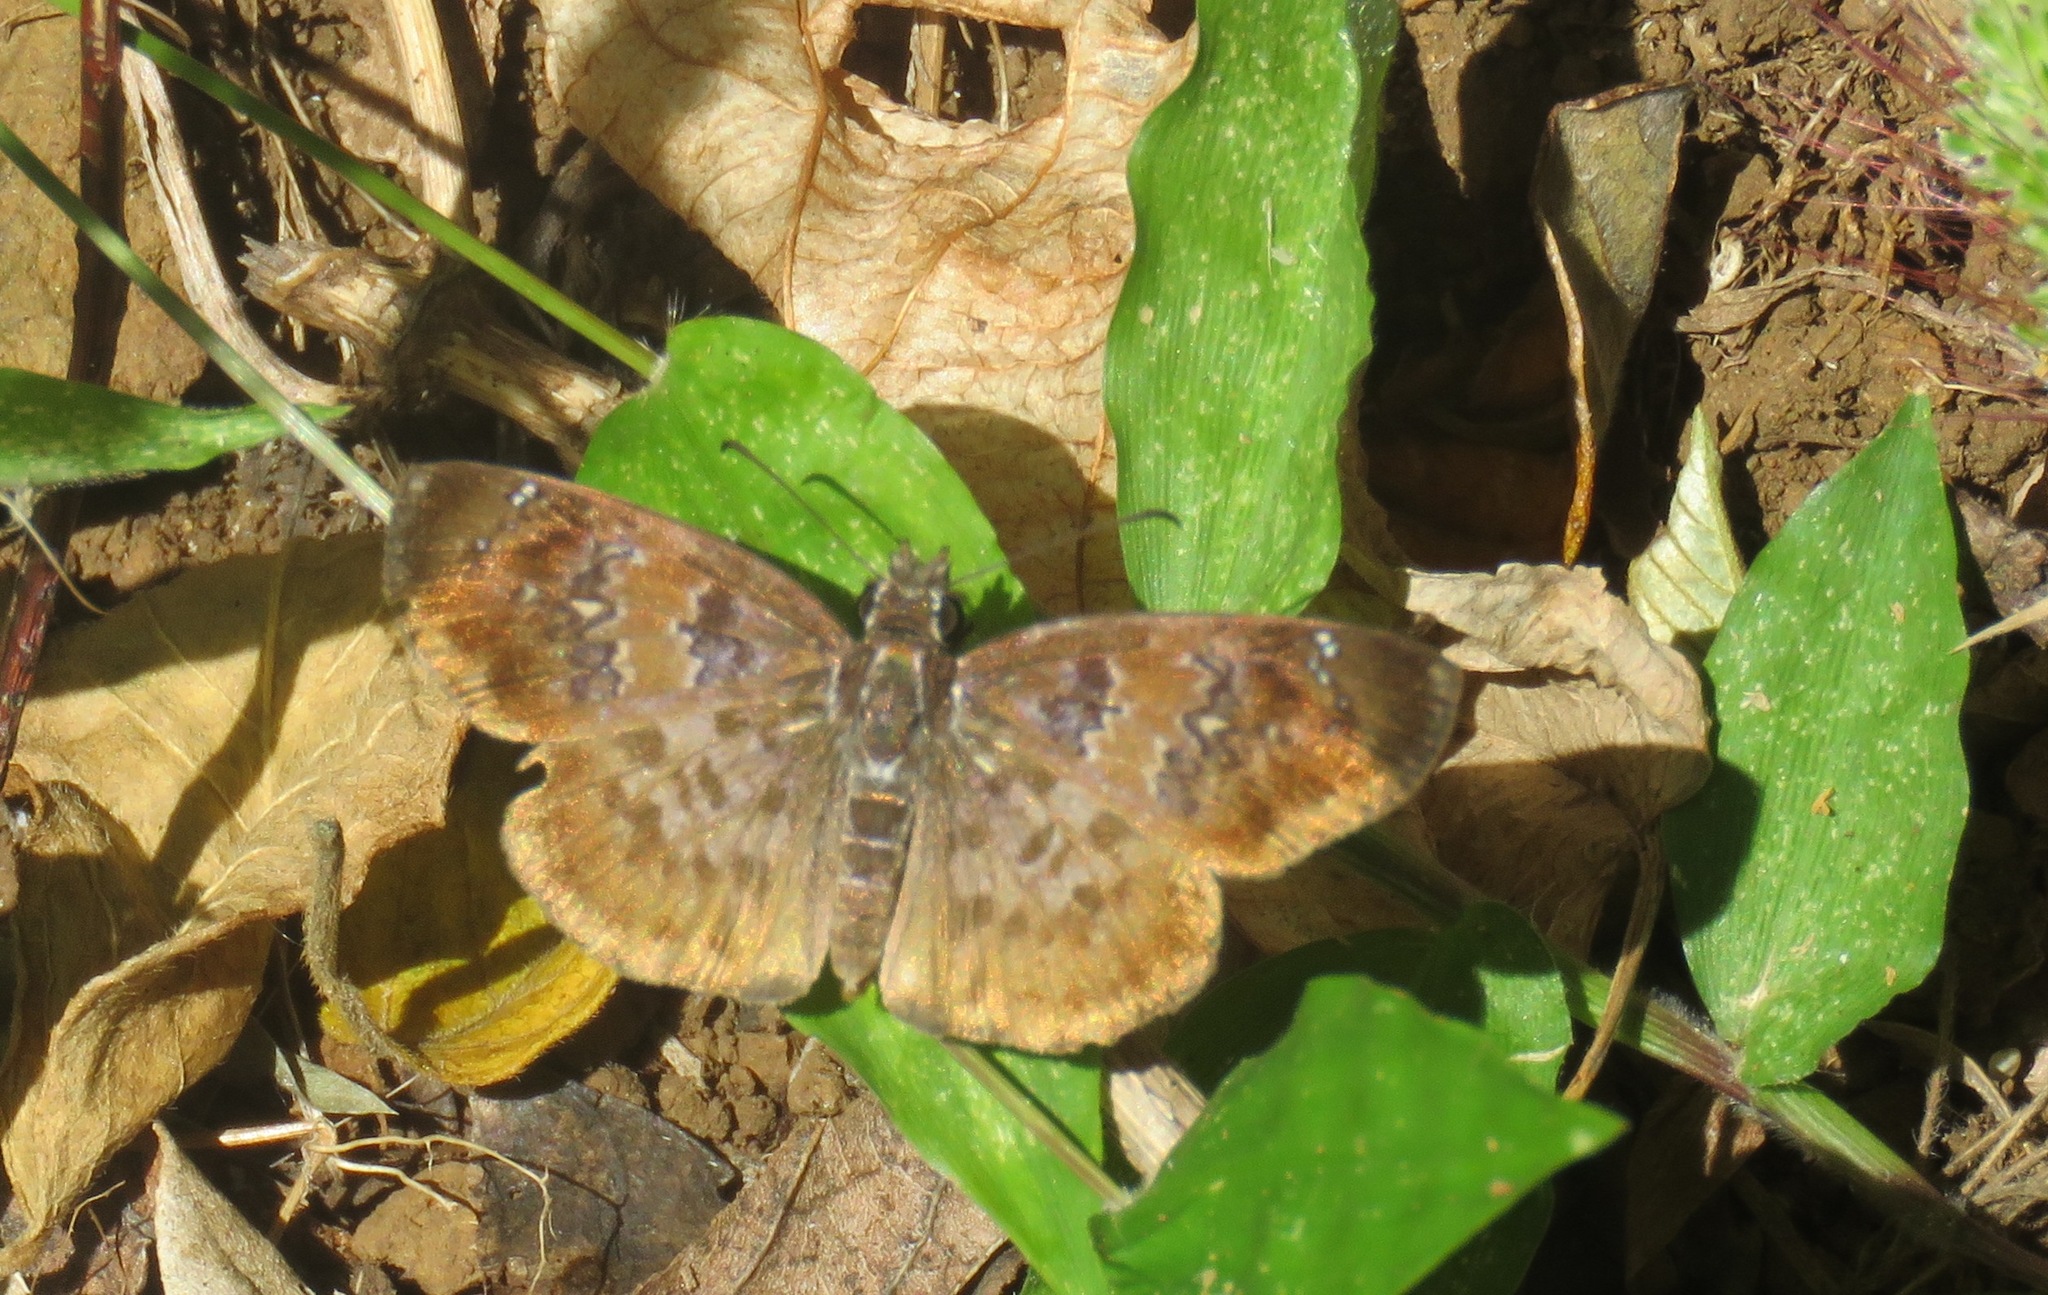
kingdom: Animalia
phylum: Arthropoda
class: Insecta
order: Lepidoptera
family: Hesperiidae
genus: Sophista
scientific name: Sophista bifasciata
